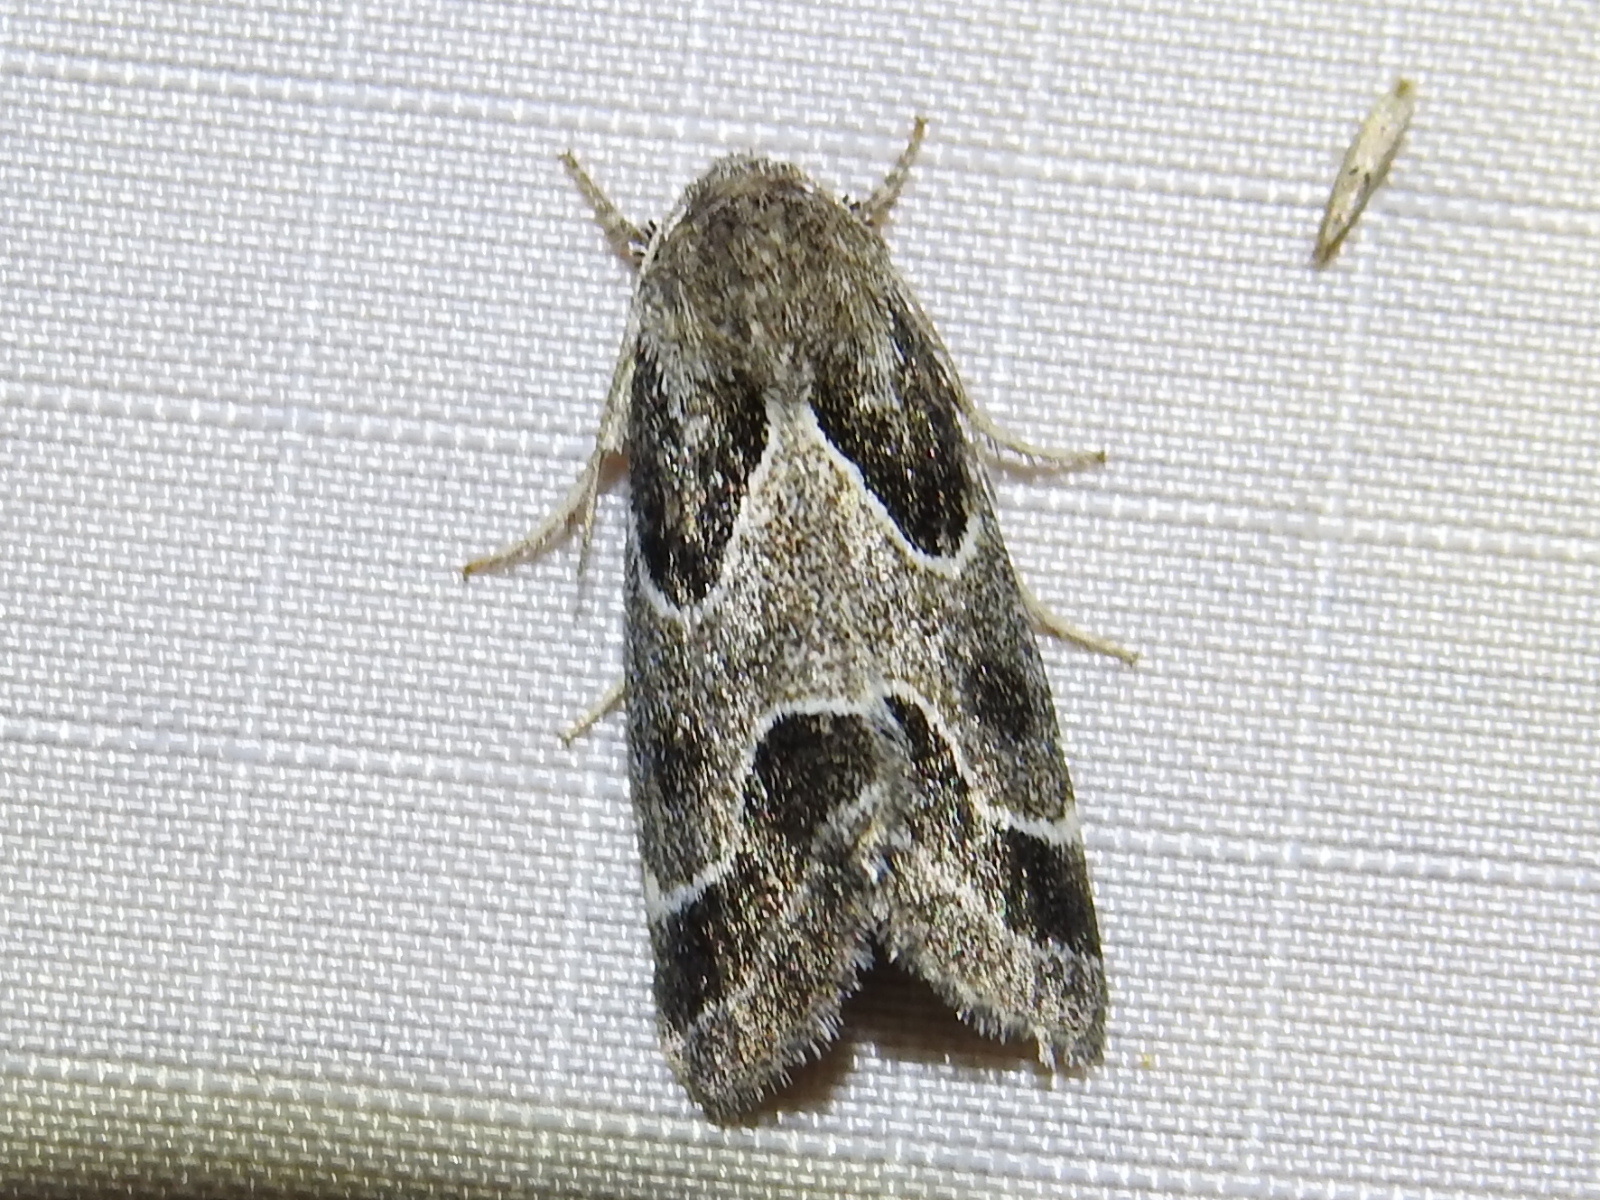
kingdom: Animalia
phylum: Arthropoda
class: Insecta
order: Lepidoptera
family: Noctuidae
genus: Schinia
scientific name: Schinia rivulosa
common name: Scarce meal-moth
